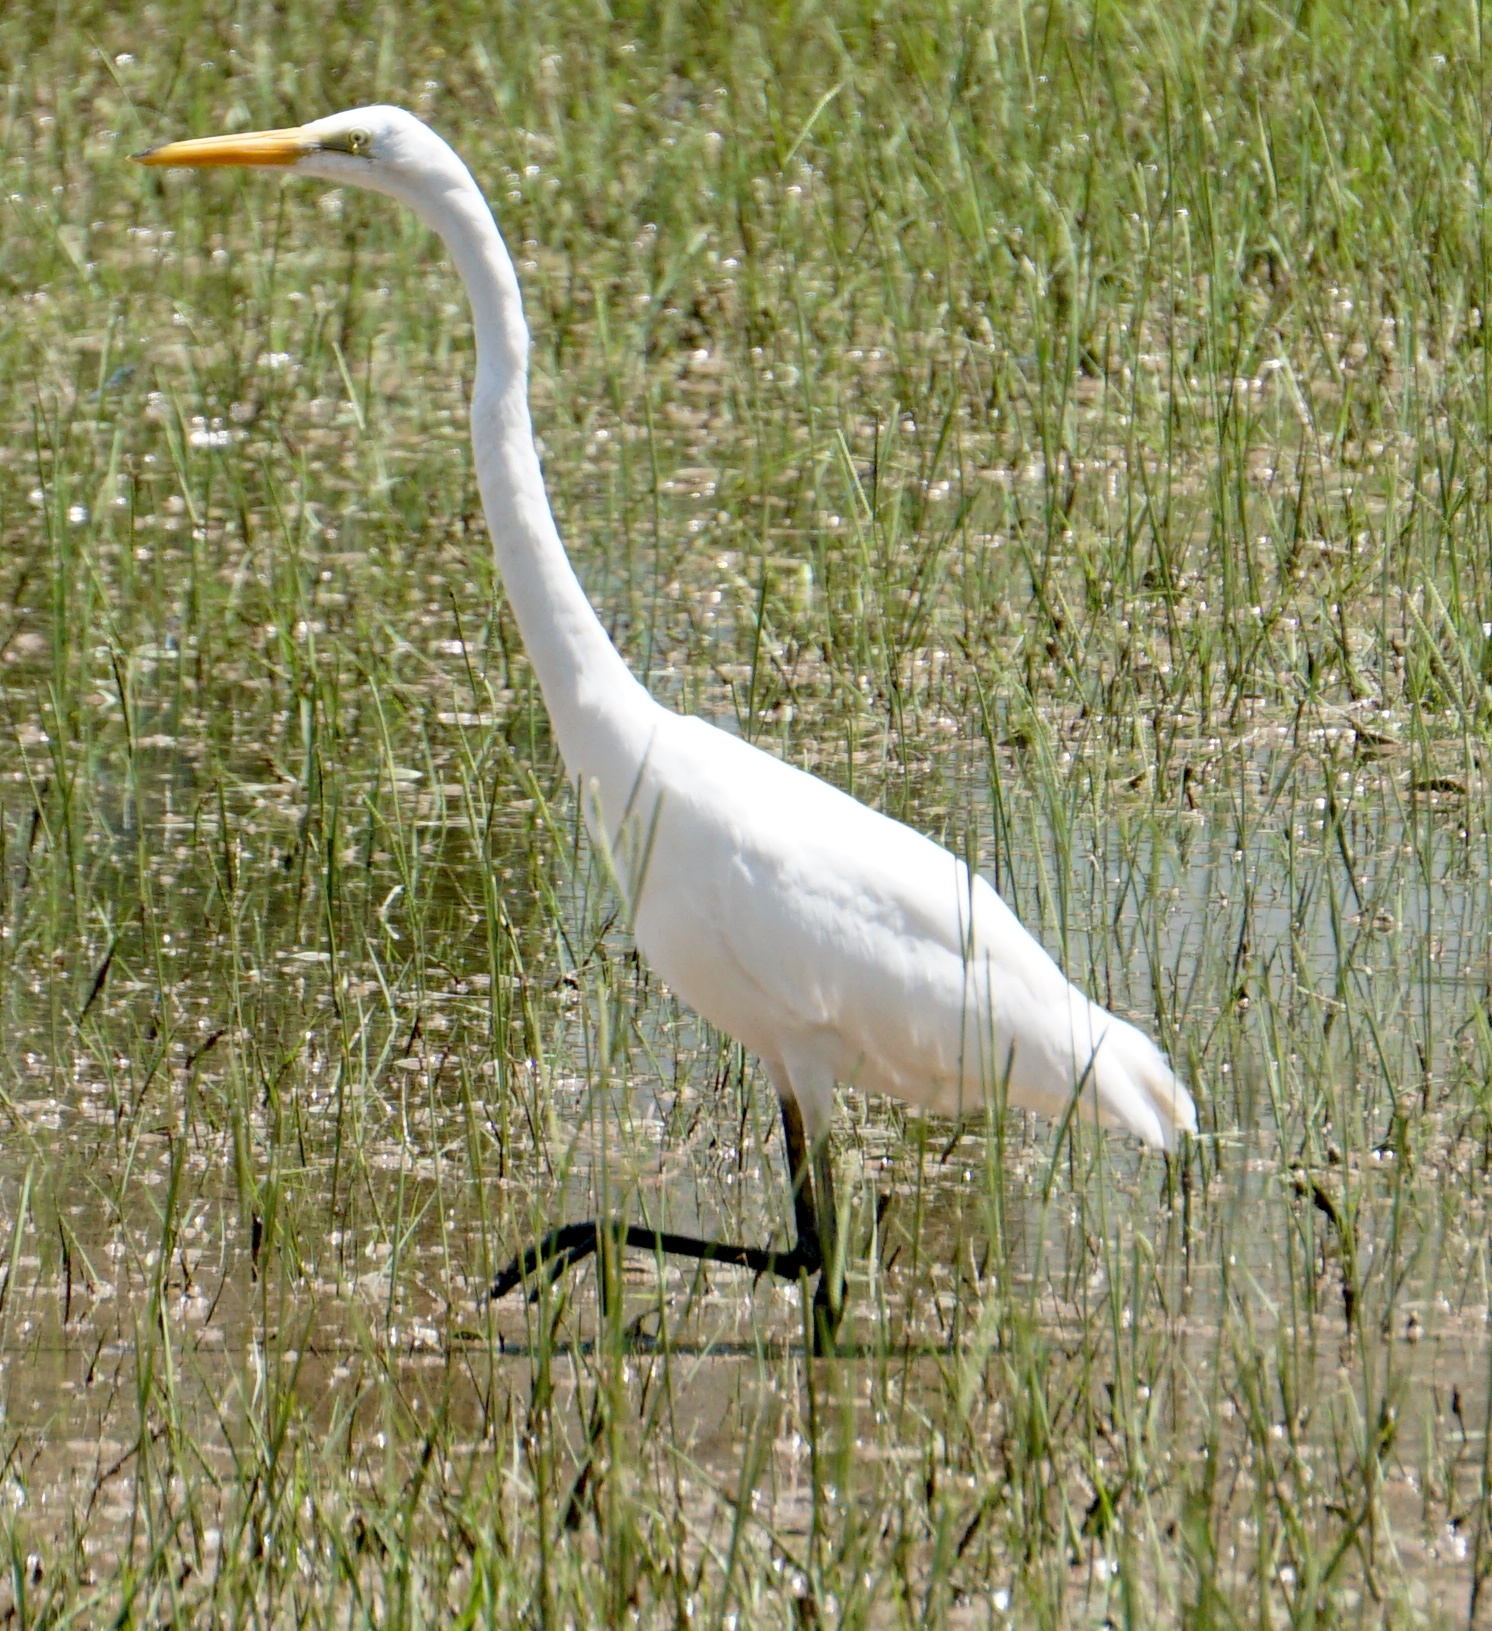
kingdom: Animalia
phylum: Chordata
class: Aves
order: Pelecaniformes
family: Ardeidae
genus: Ardea
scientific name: Ardea alba
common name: Great egret
